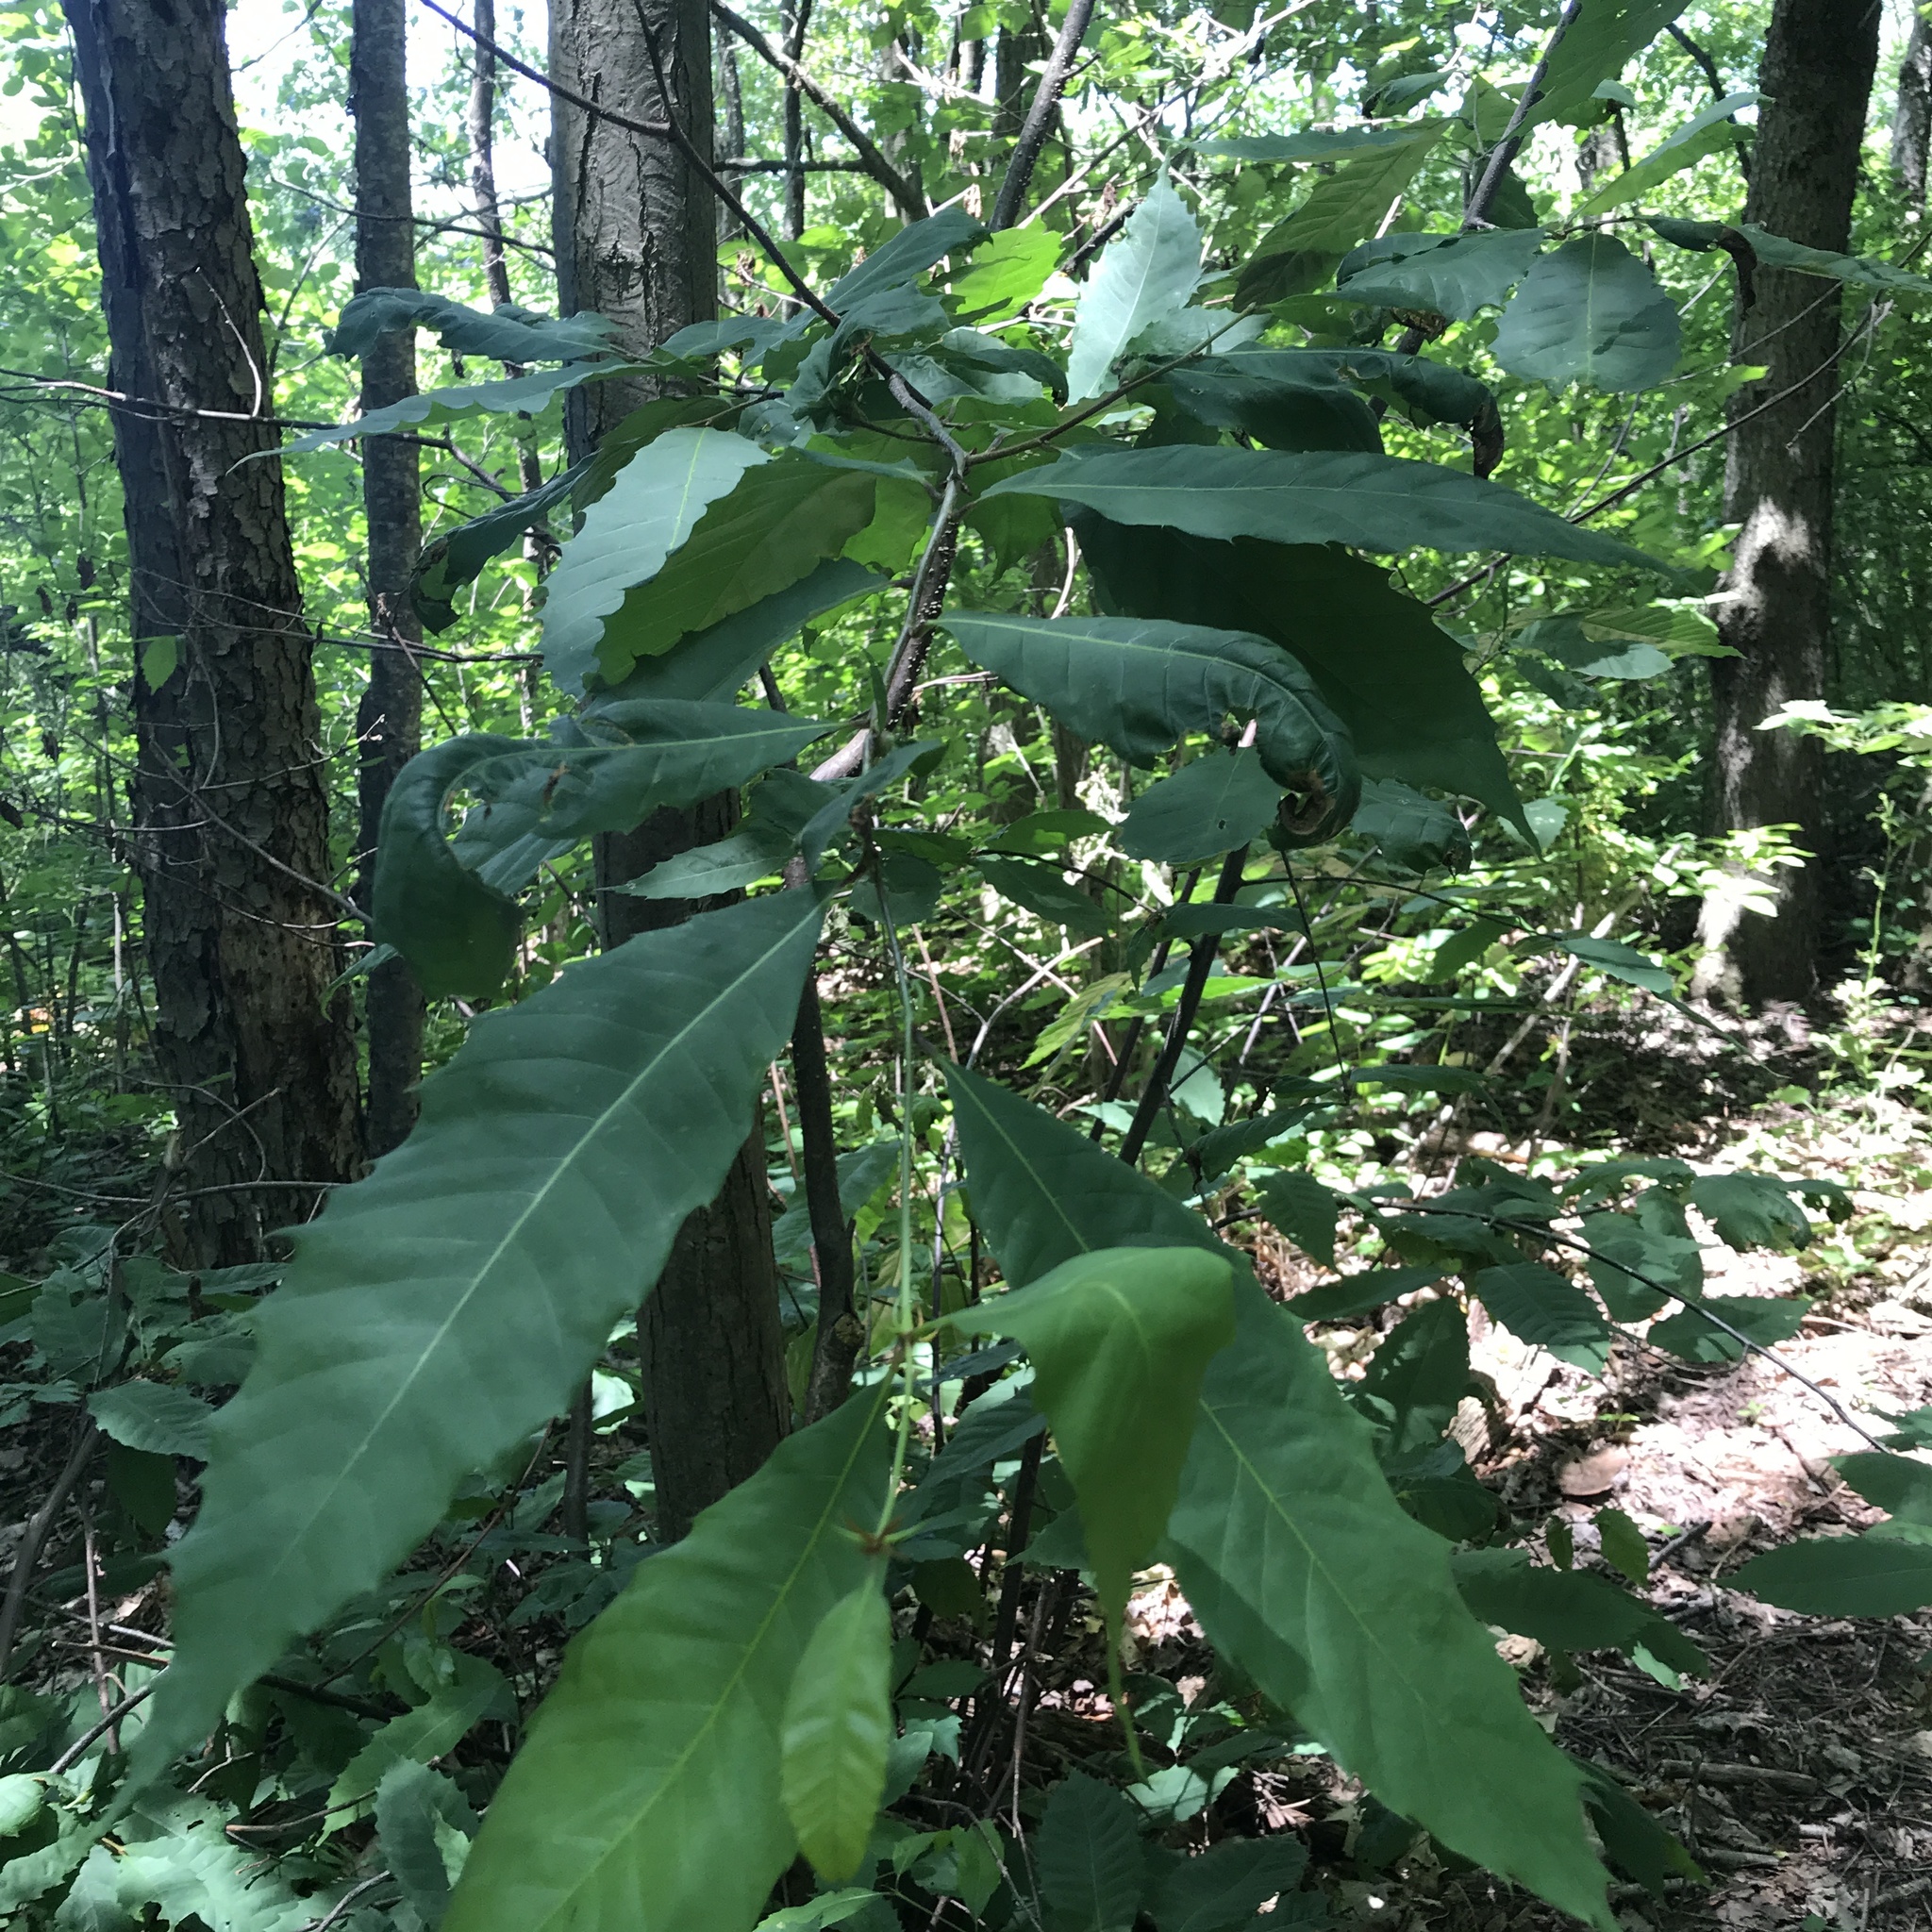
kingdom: Plantae
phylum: Tracheophyta
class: Magnoliopsida
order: Fagales
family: Fagaceae
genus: Castanea
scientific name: Castanea dentata
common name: American chestnut
